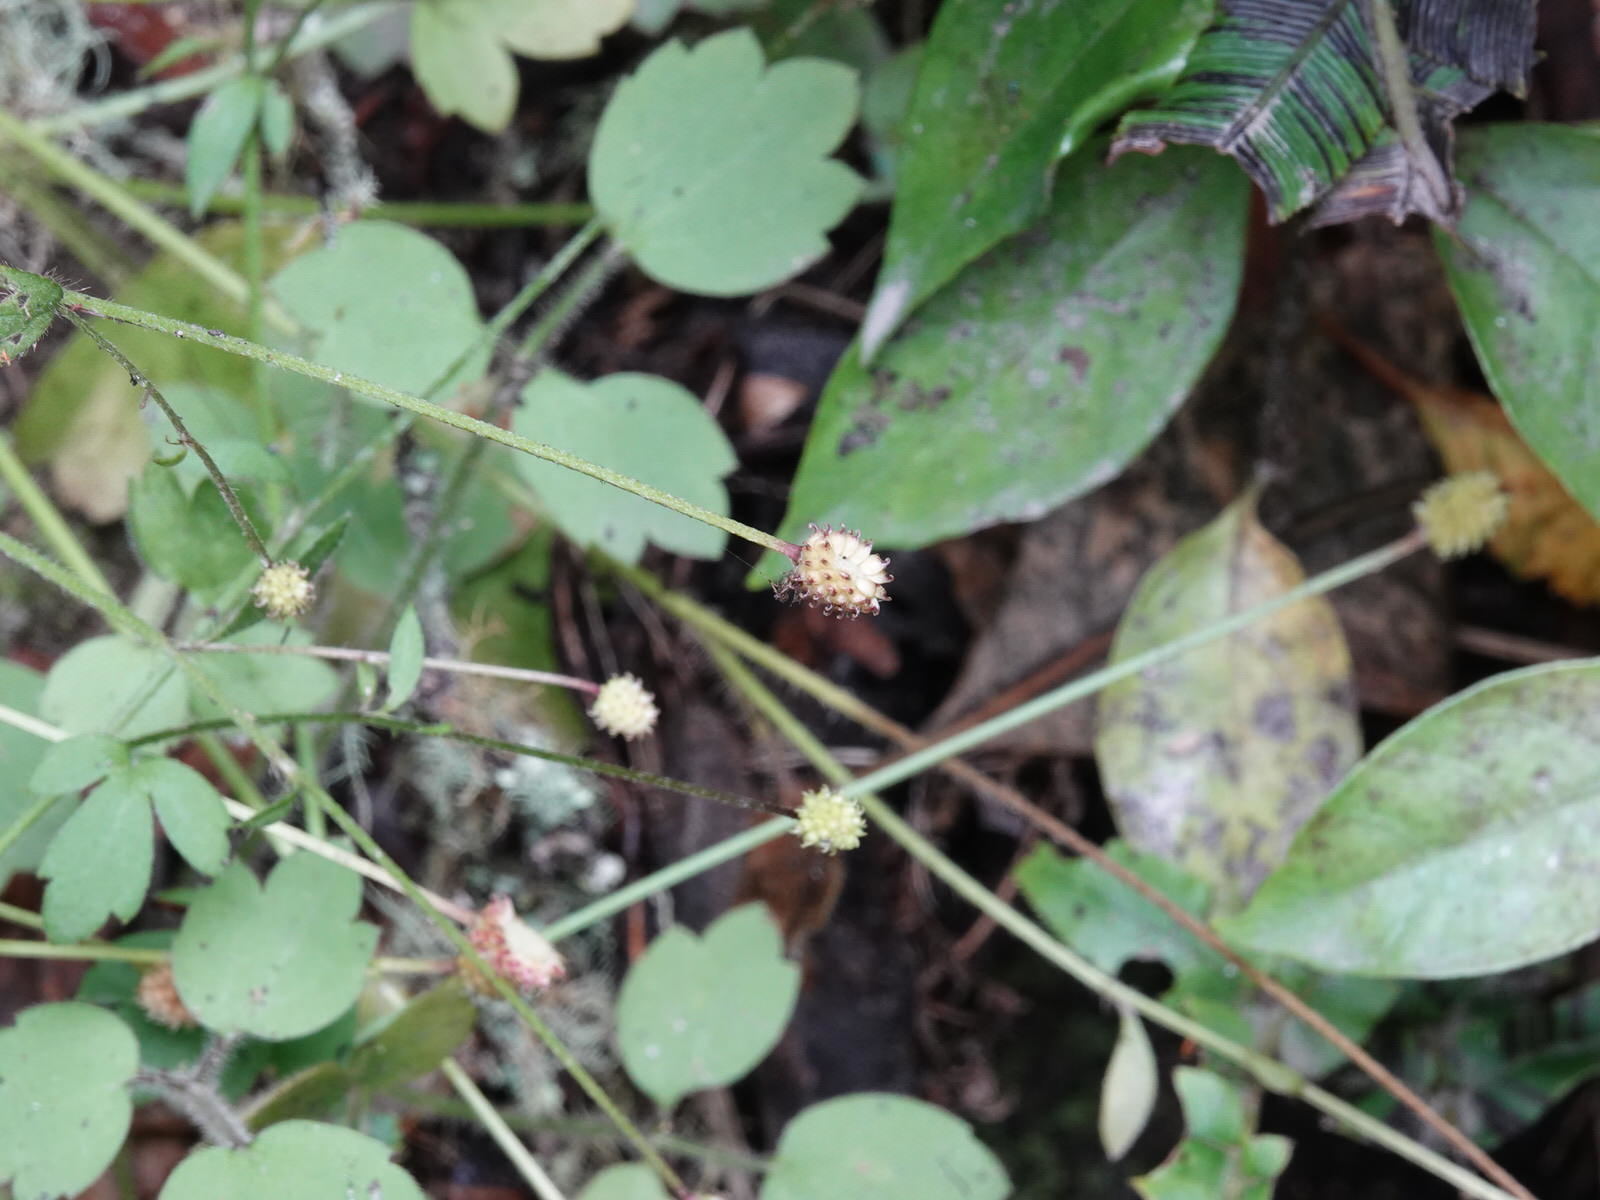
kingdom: Plantae
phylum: Tracheophyta
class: Magnoliopsida
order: Ranunculales
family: Ranunculaceae
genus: Ranunculus
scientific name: Ranunculus reflexus
